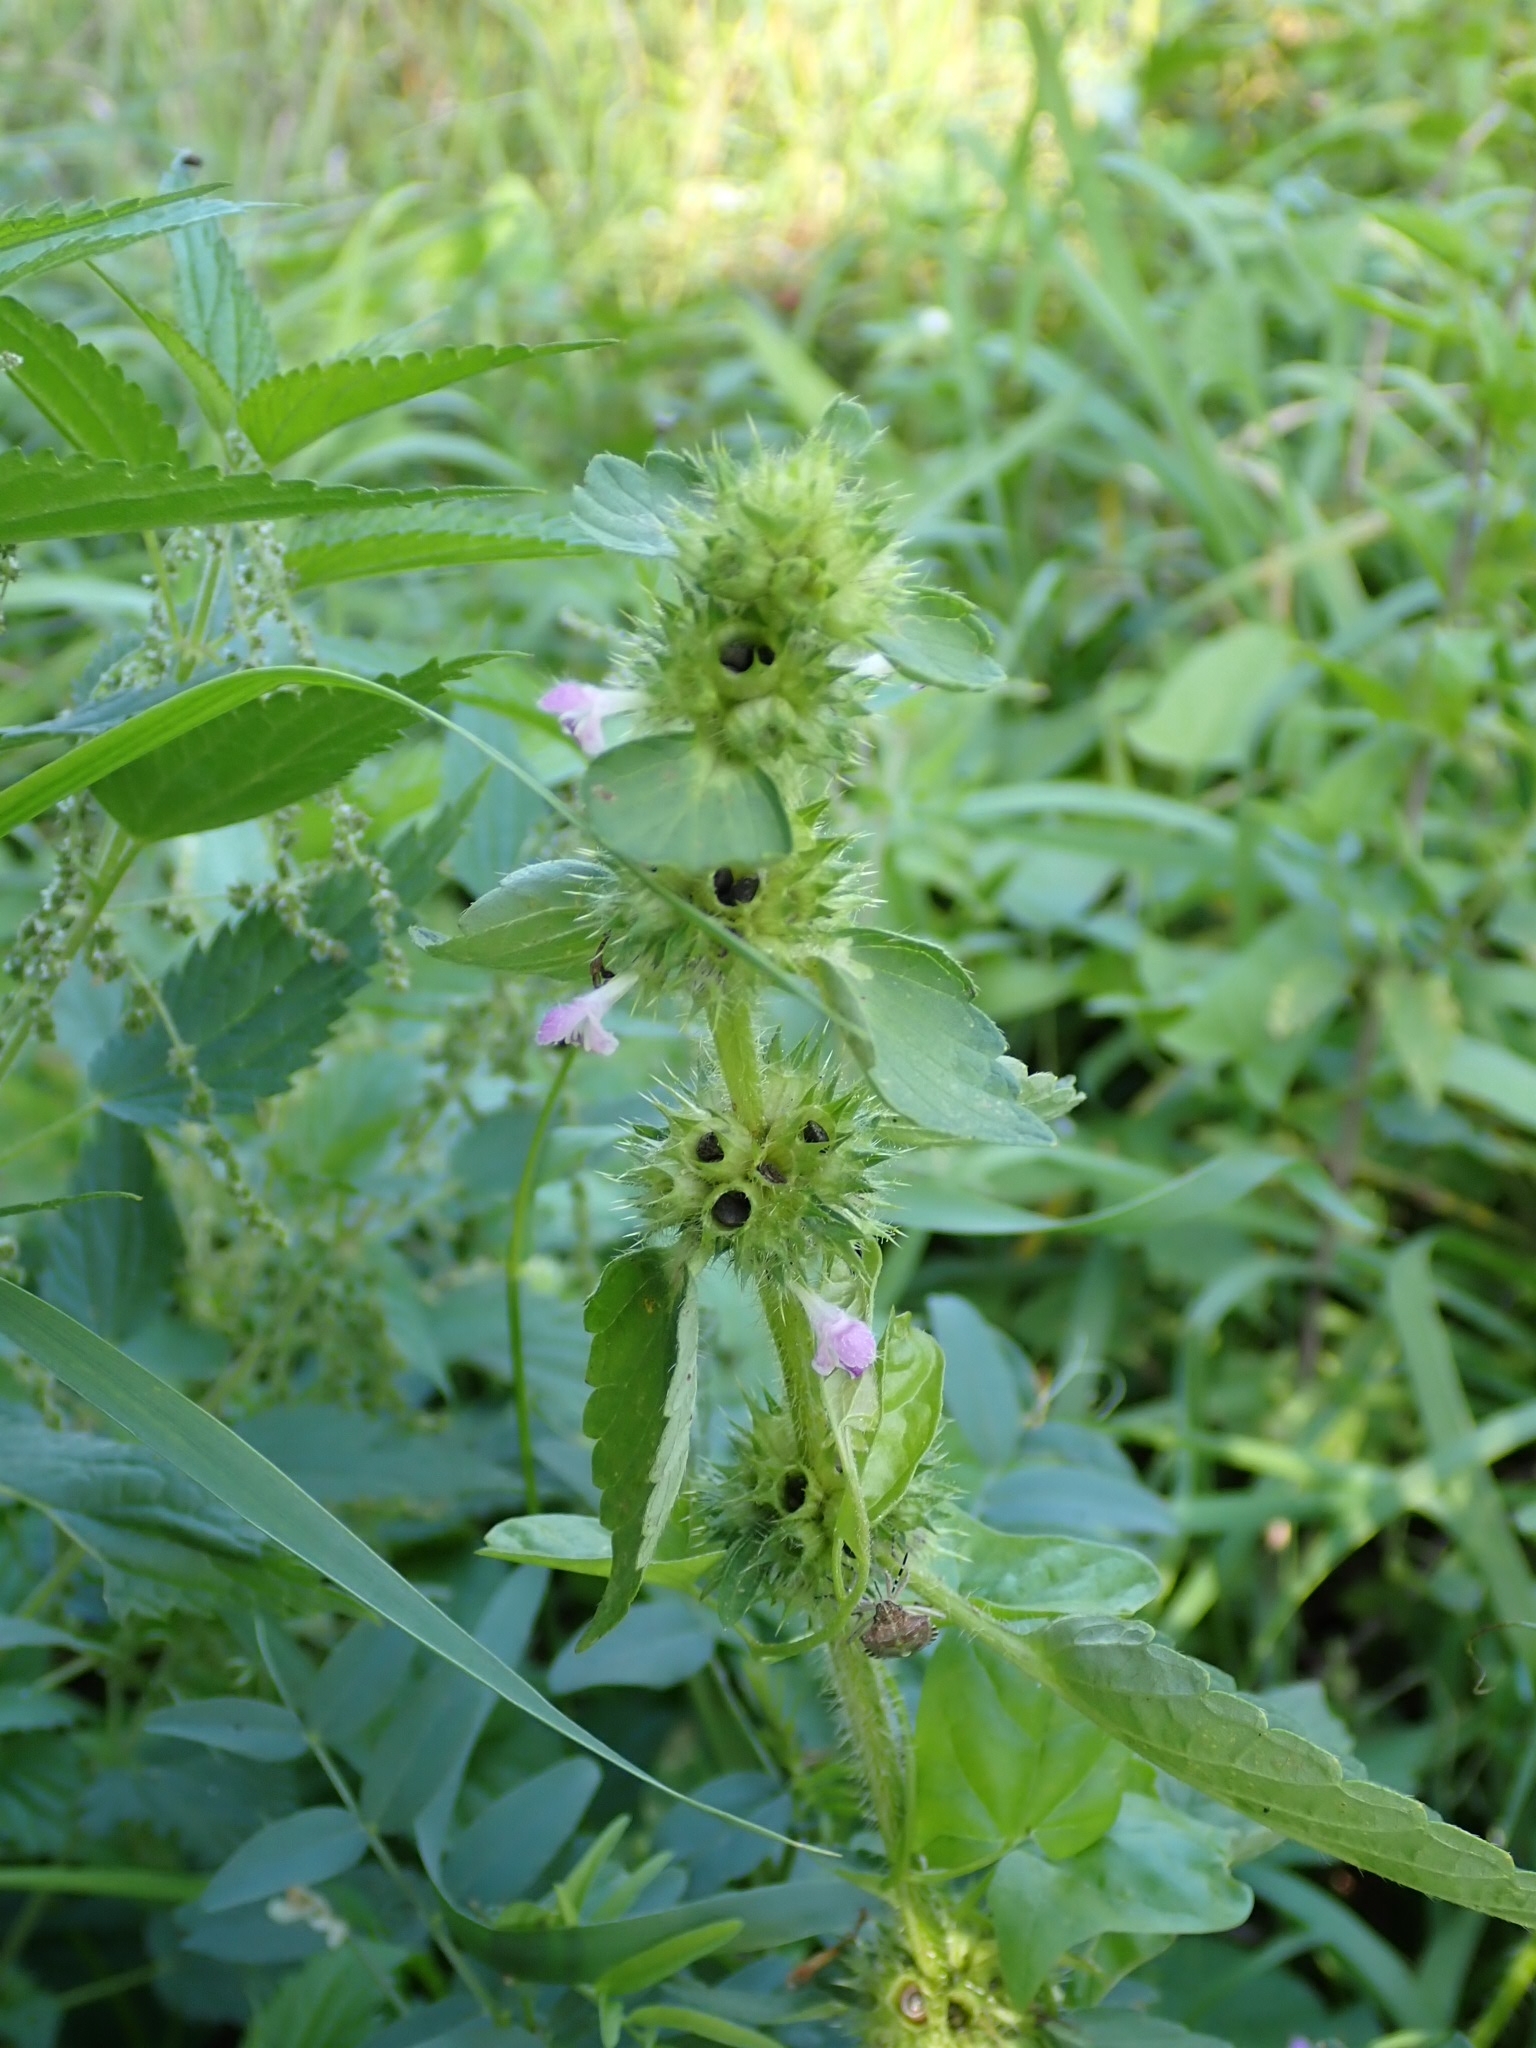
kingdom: Plantae
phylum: Tracheophyta
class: Magnoliopsida
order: Lamiales
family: Lamiaceae
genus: Galeopsis
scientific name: Galeopsis bifida
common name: Bifid hemp-nettle
